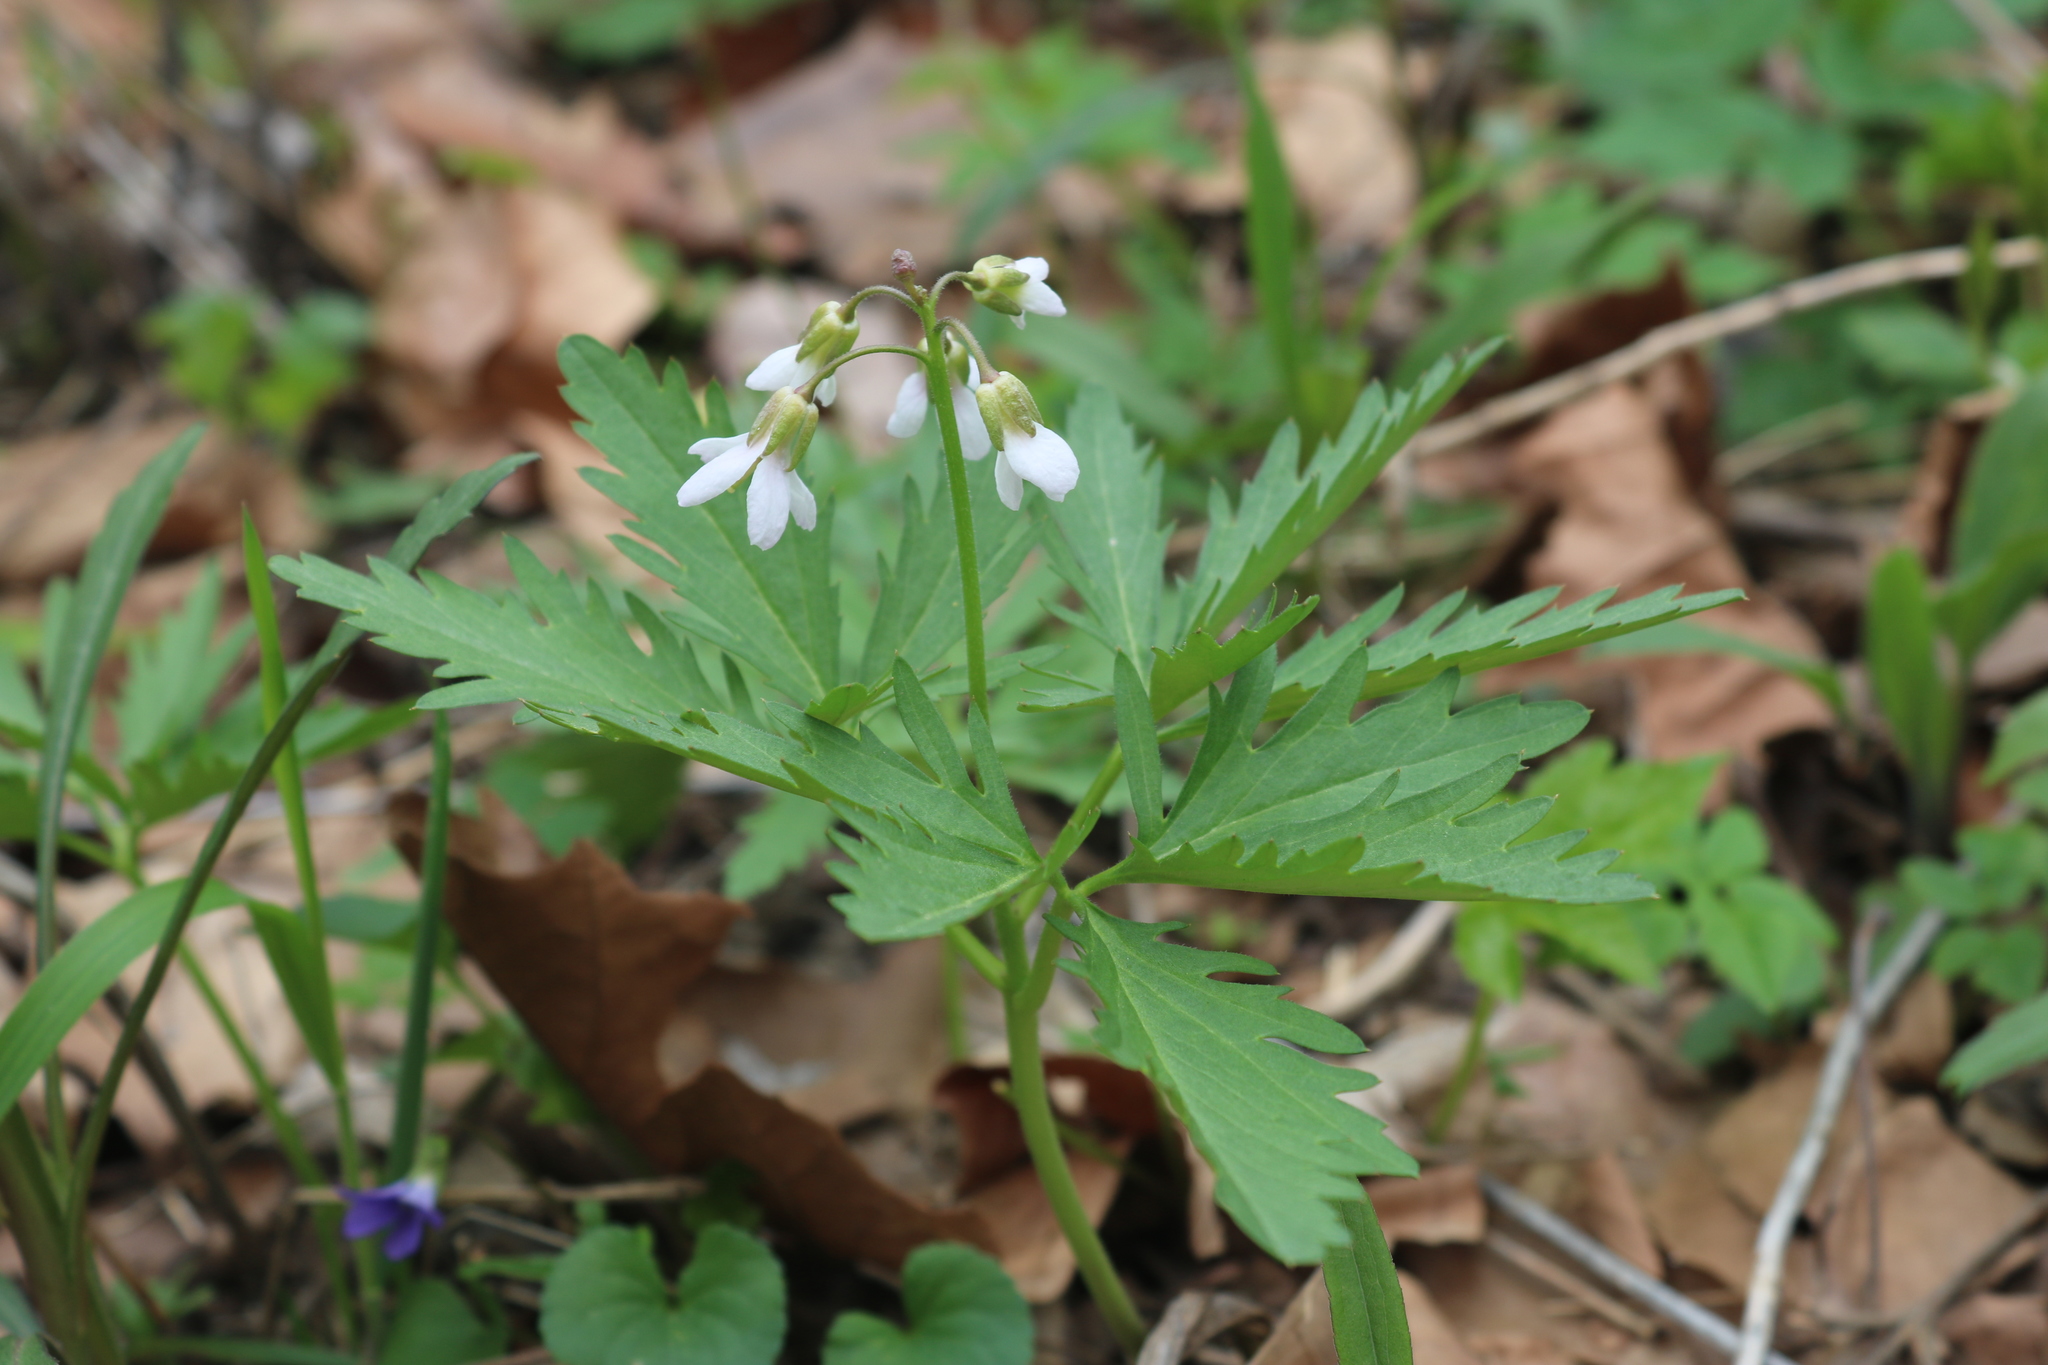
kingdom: Plantae
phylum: Tracheophyta
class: Magnoliopsida
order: Brassicales
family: Brassicaceae
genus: Cardamine
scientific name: Cardamine concatenata
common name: Cut-leaf toothcup
